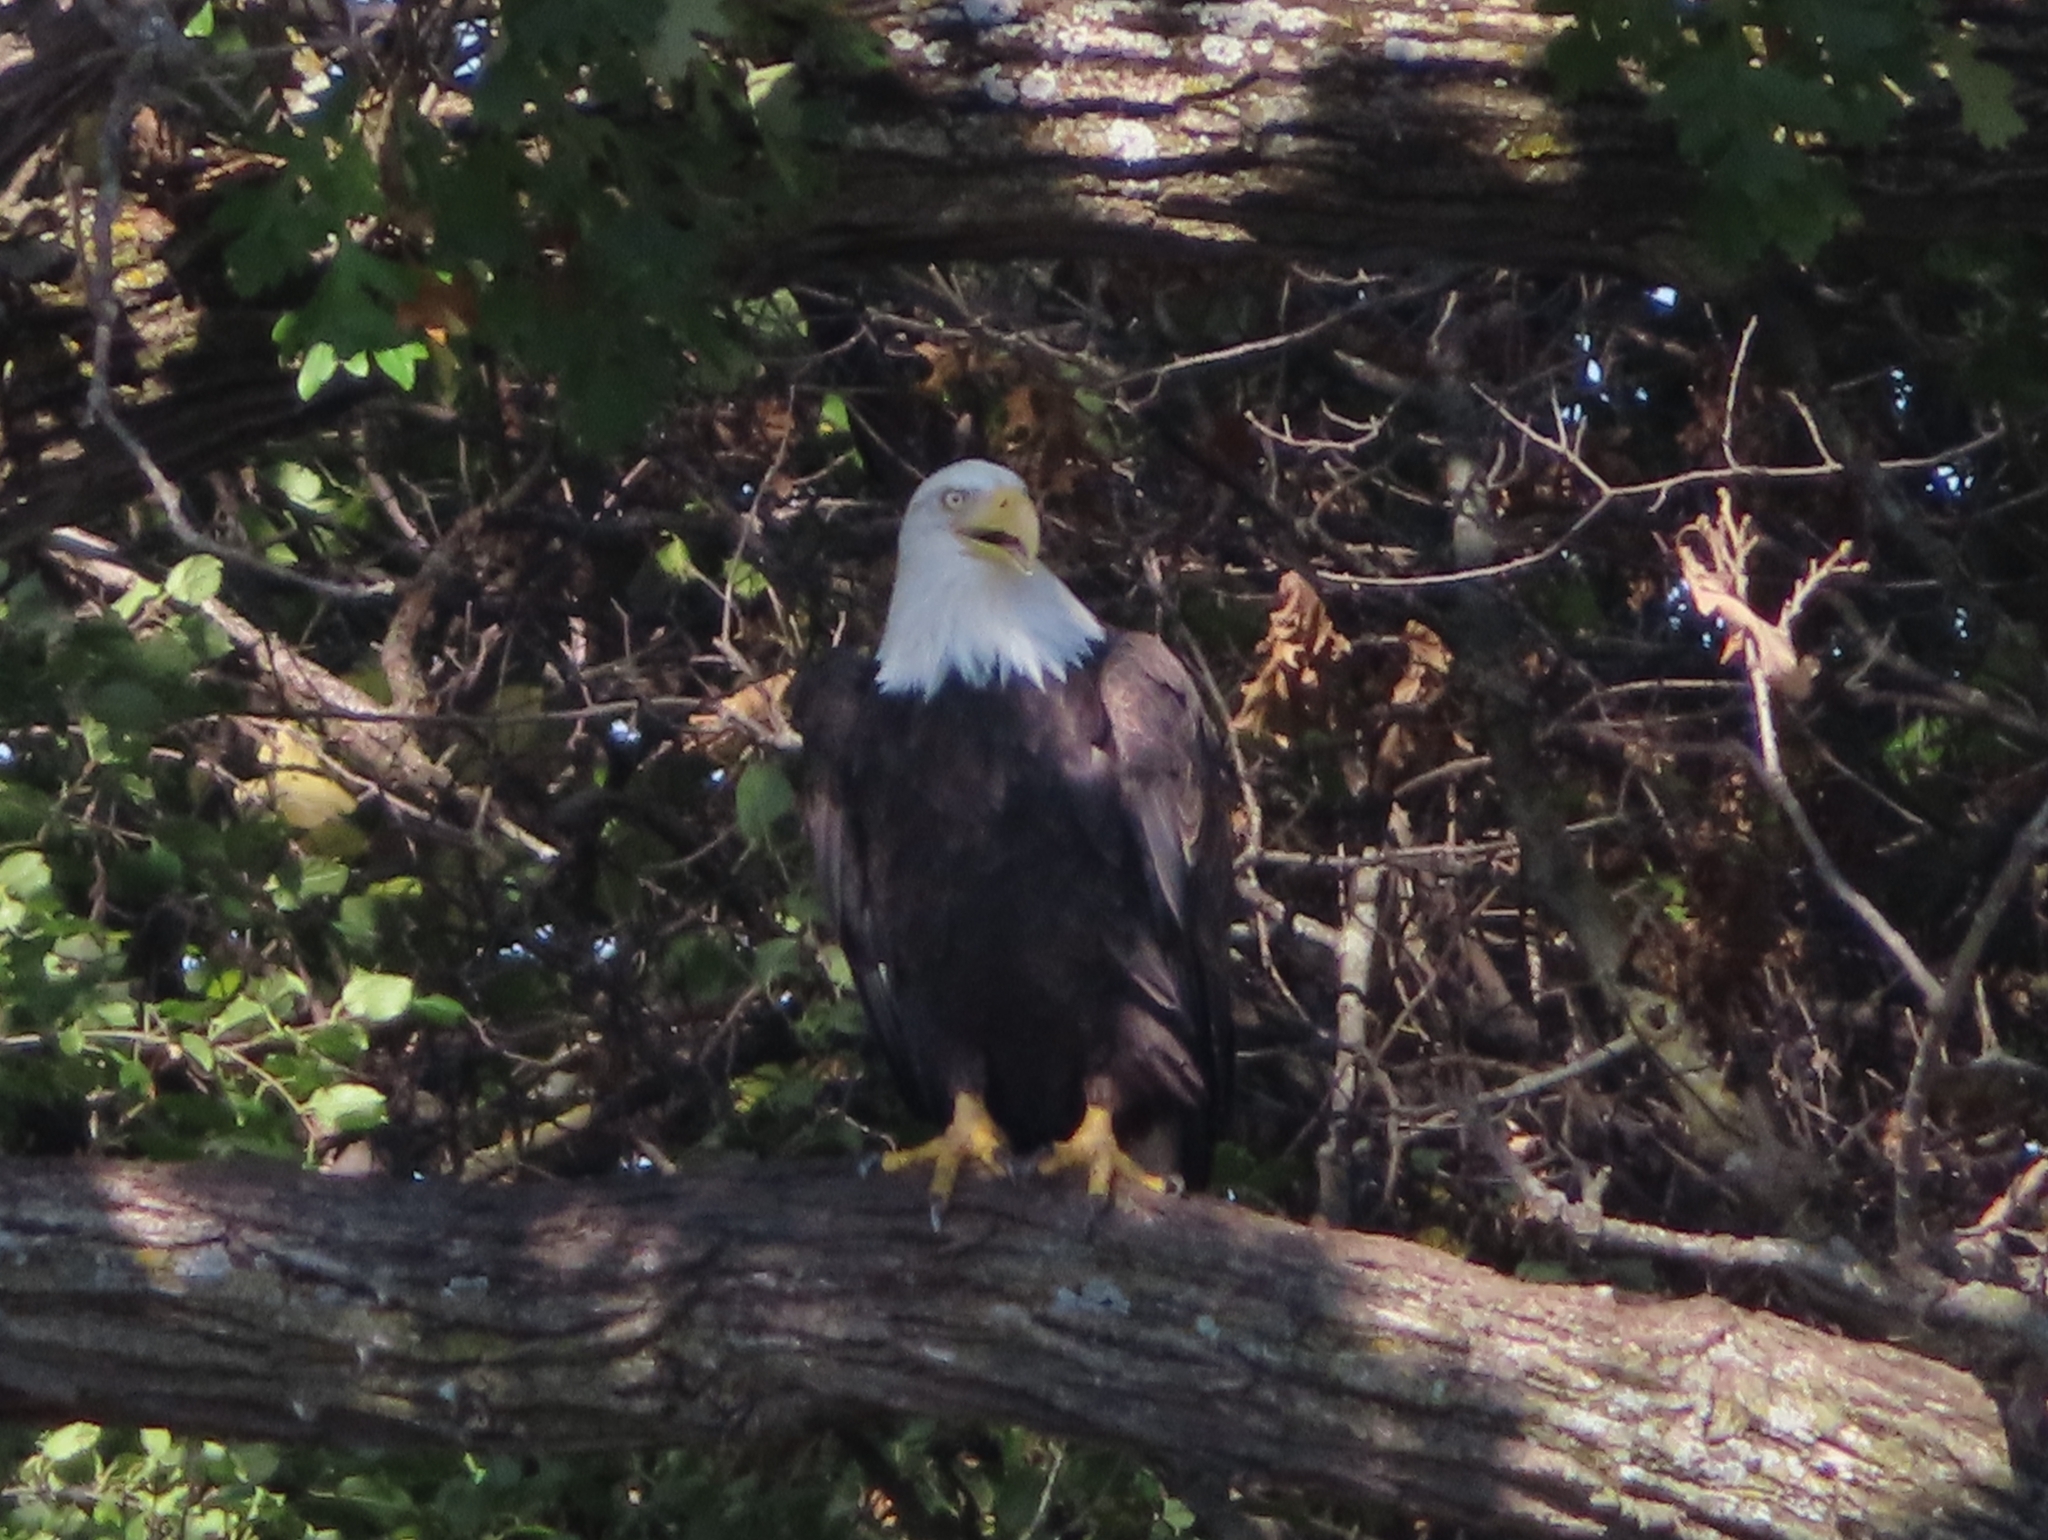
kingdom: Animalia
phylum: Chordata
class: Aves
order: Accipitriformes
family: Accipitridae
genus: Haliaeetus
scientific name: Haliaeetus leucocephalus
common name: Bald eagle
